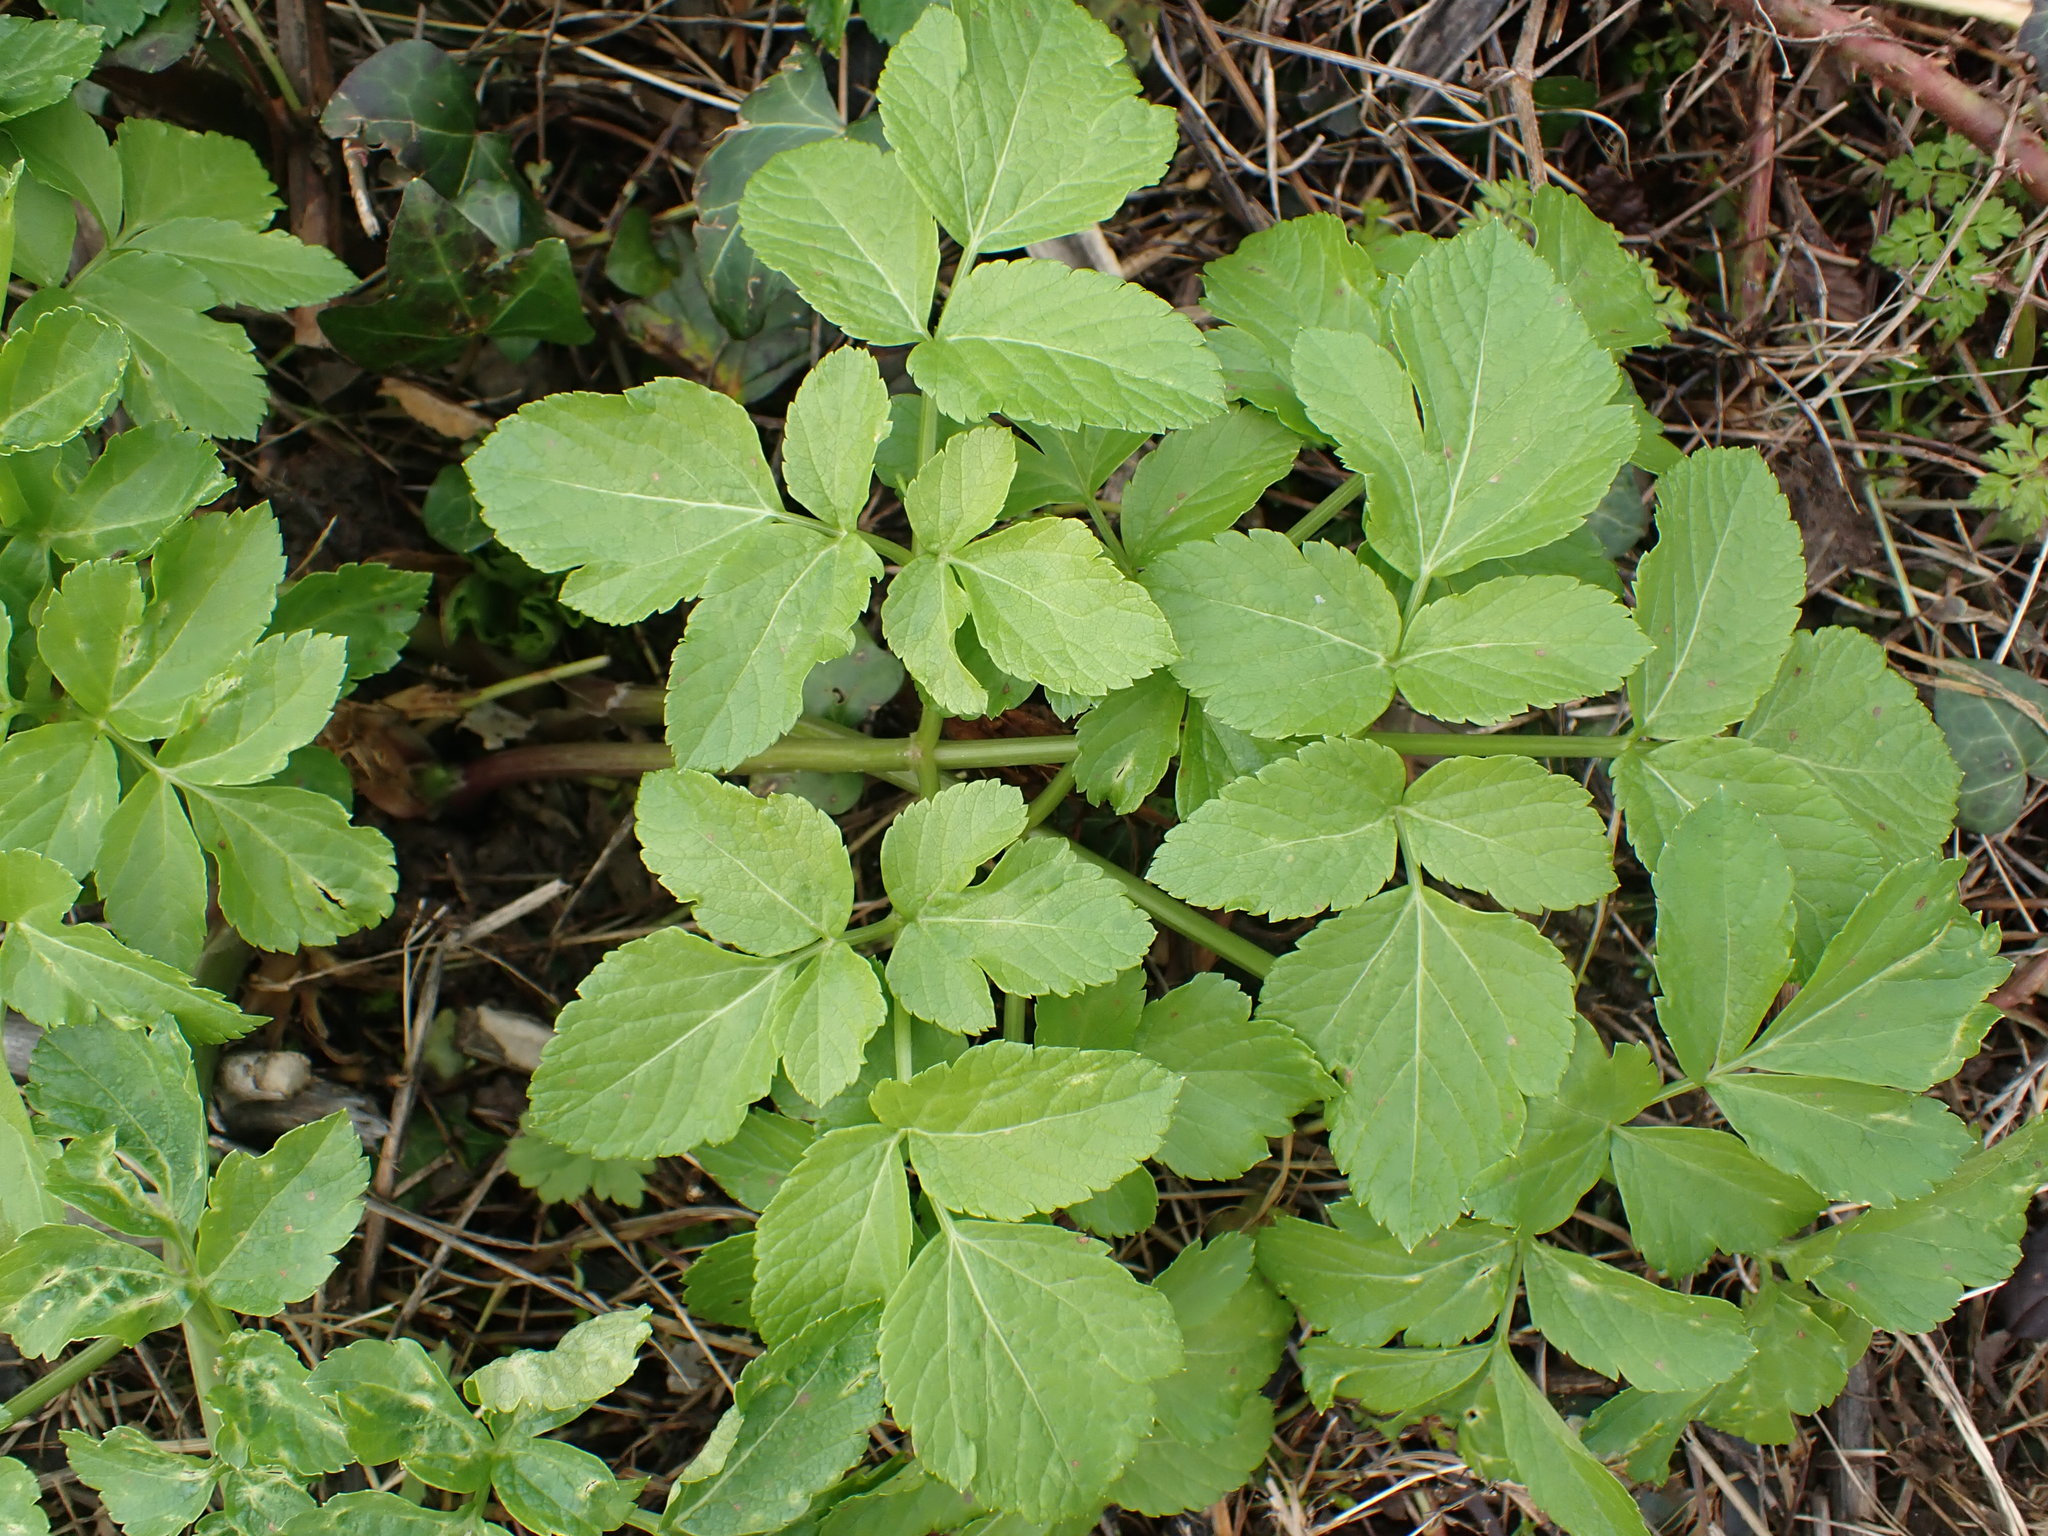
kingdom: Plantae
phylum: Tracheophyta
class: Magnoliopsida
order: Apiales
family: Apiaceae
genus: Smyrnium
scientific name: Smyrnium olusatrum
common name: Alexanders
